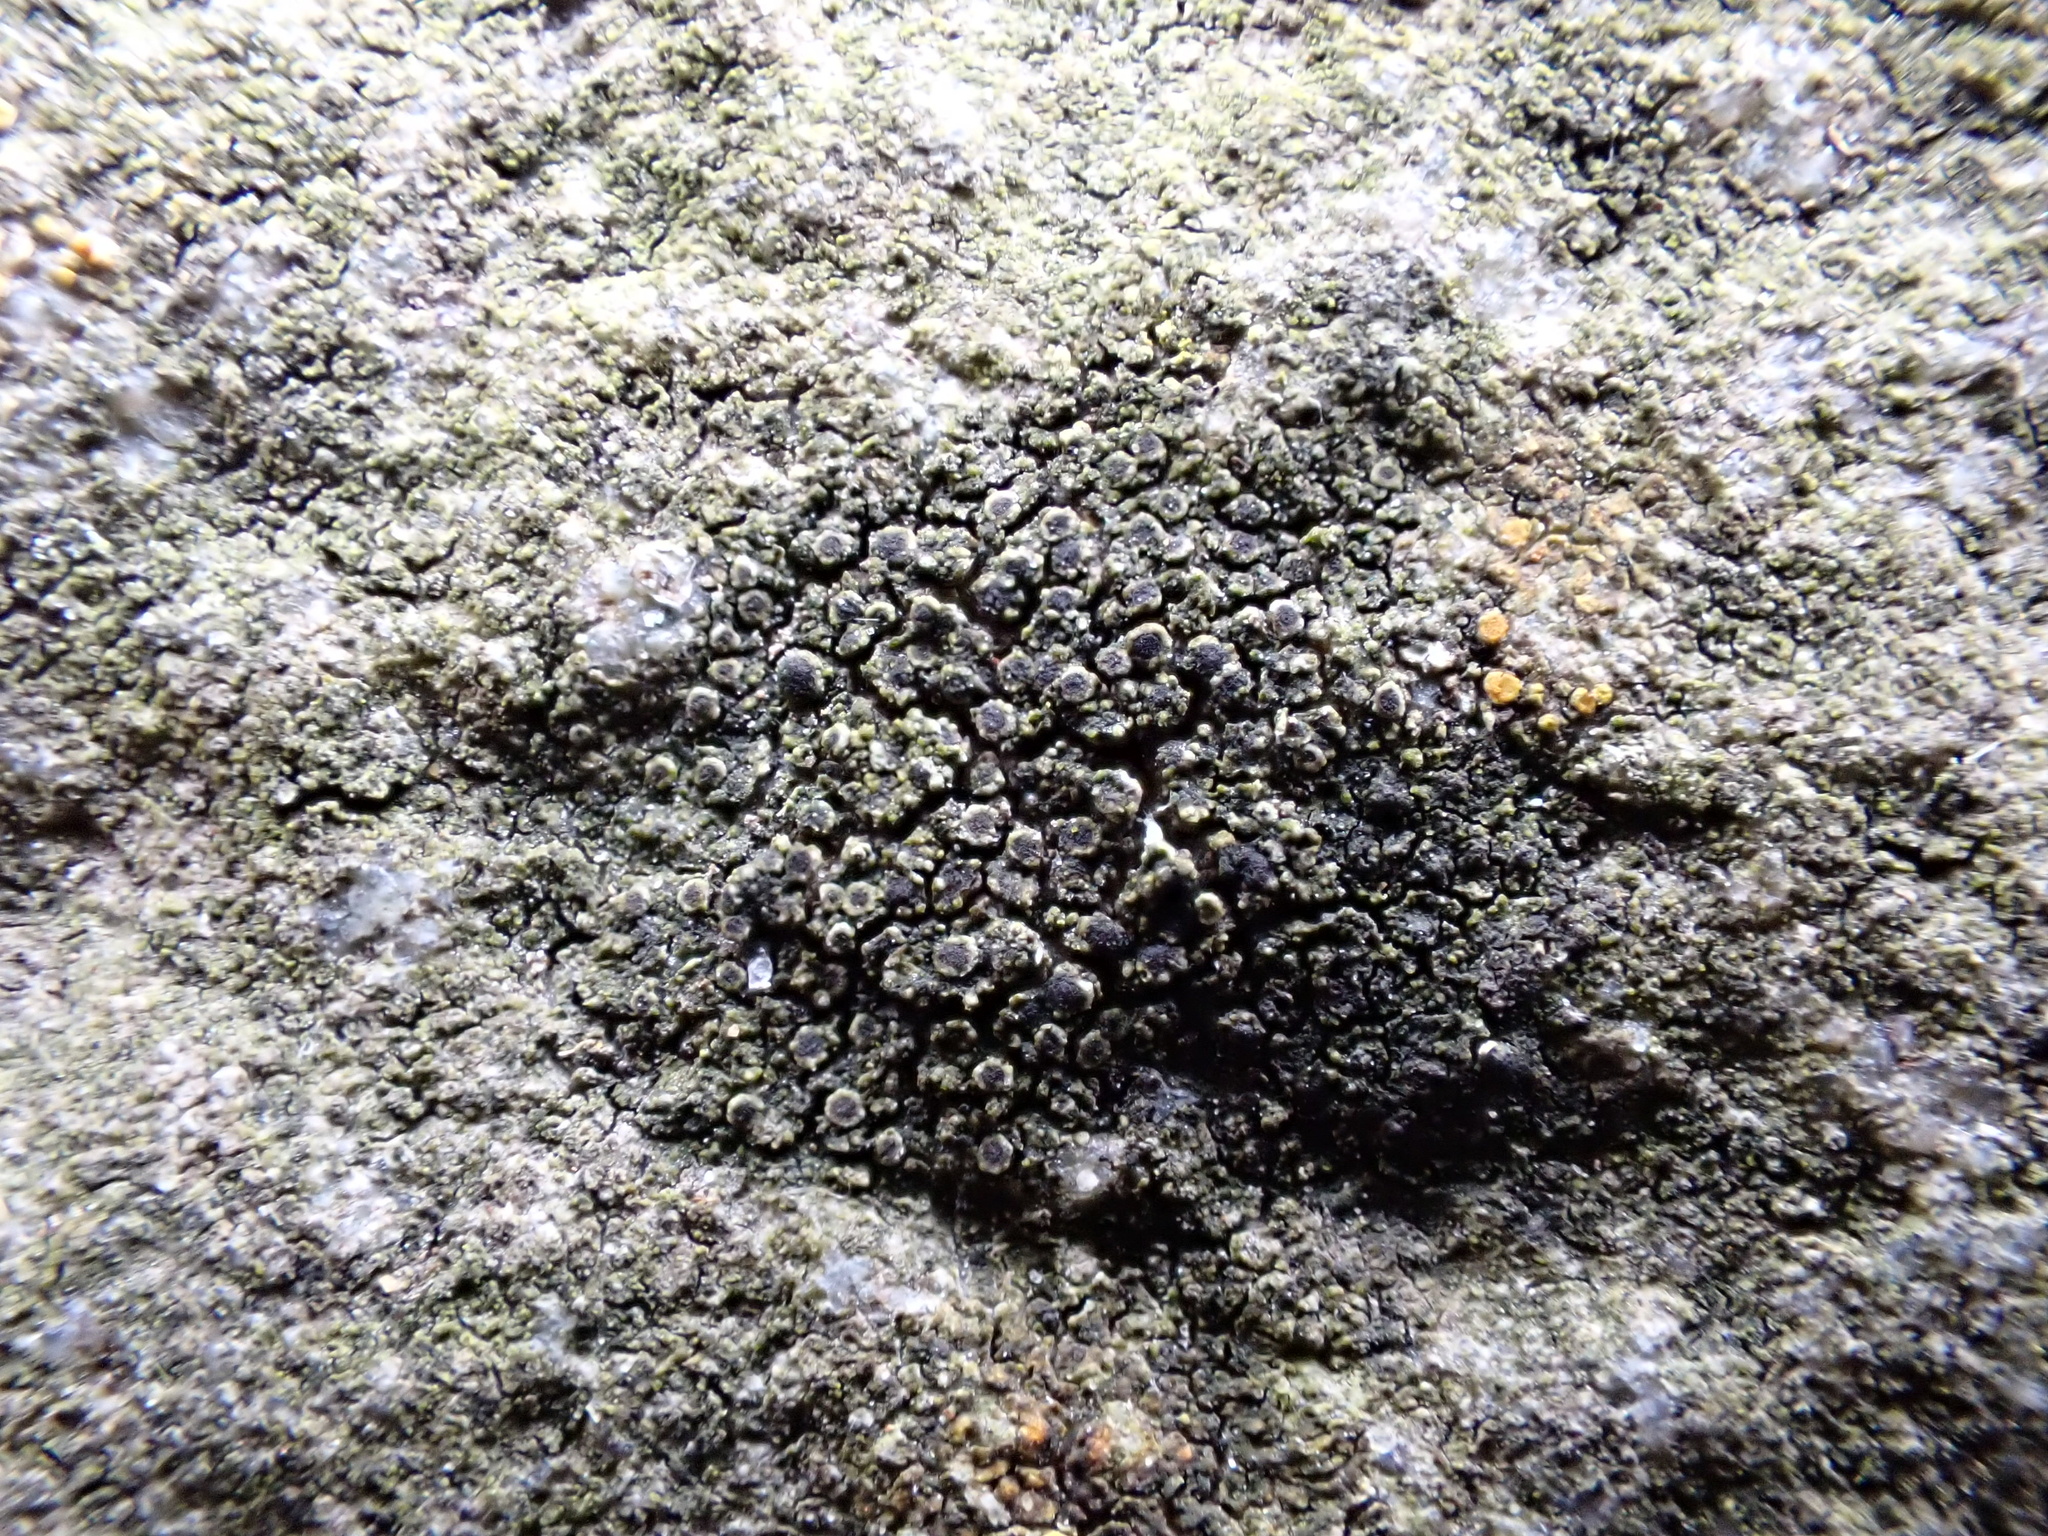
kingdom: Fungi
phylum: Ascomycota
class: Lecanoromycetes
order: Caliciales
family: Physciaceae
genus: Rinodina
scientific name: Rinodina oleae
